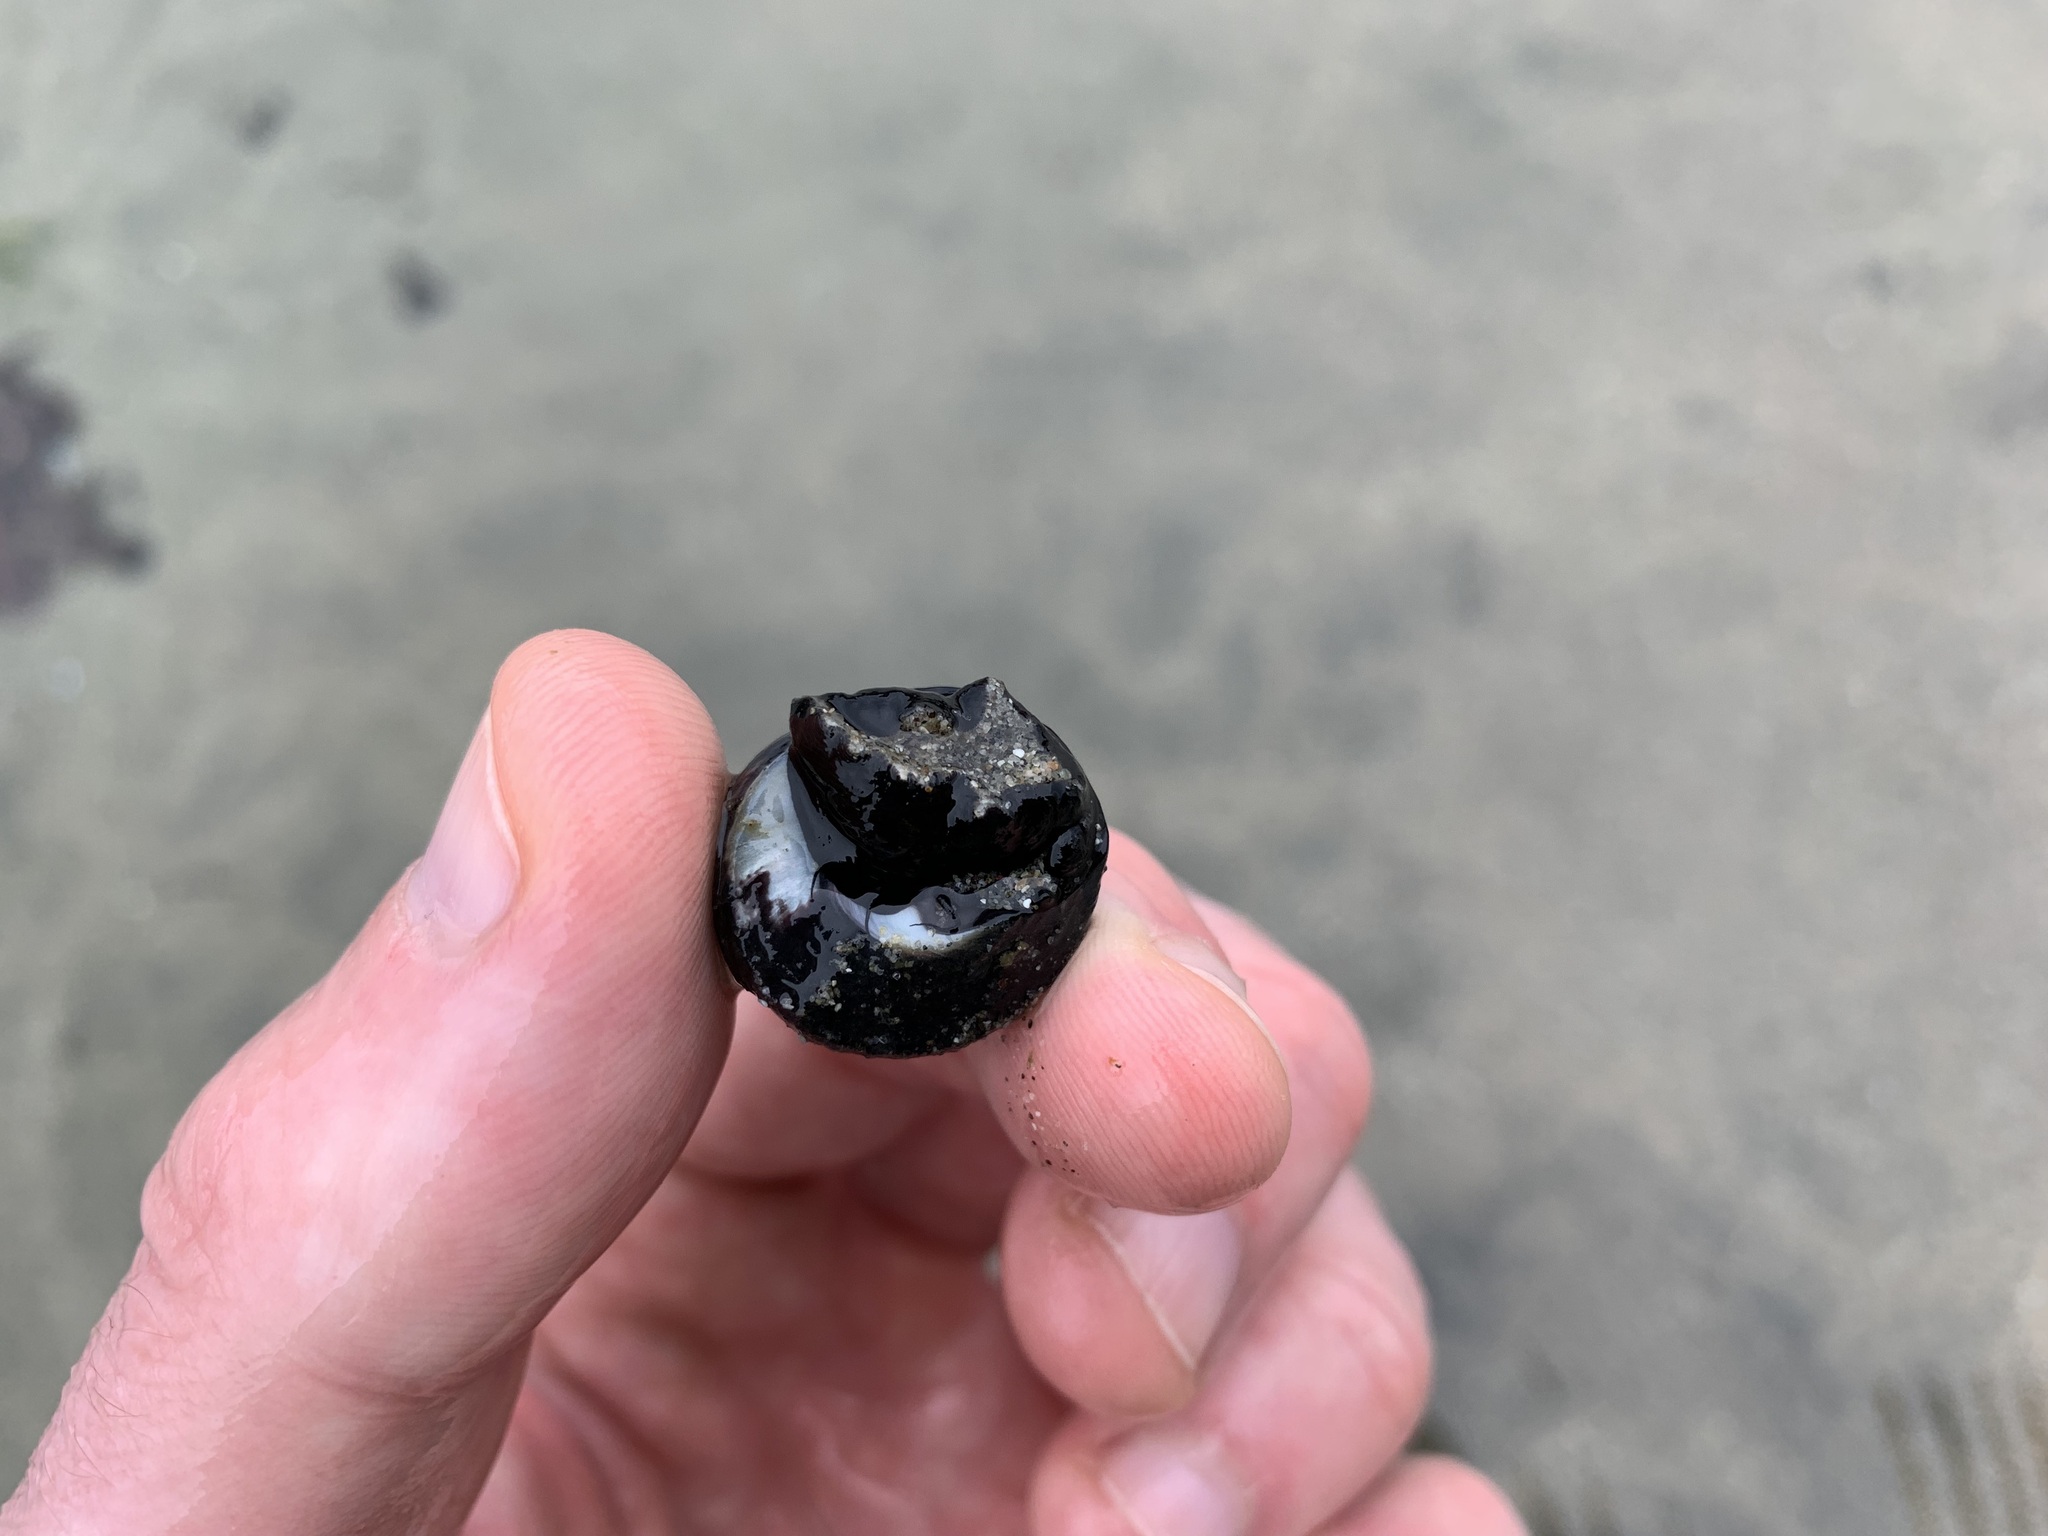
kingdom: Animalia
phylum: Mollusca
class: Gastropoda
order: Trochida
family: Tegulidae
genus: Tegula
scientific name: Tegula funebralis
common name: Black tegula
